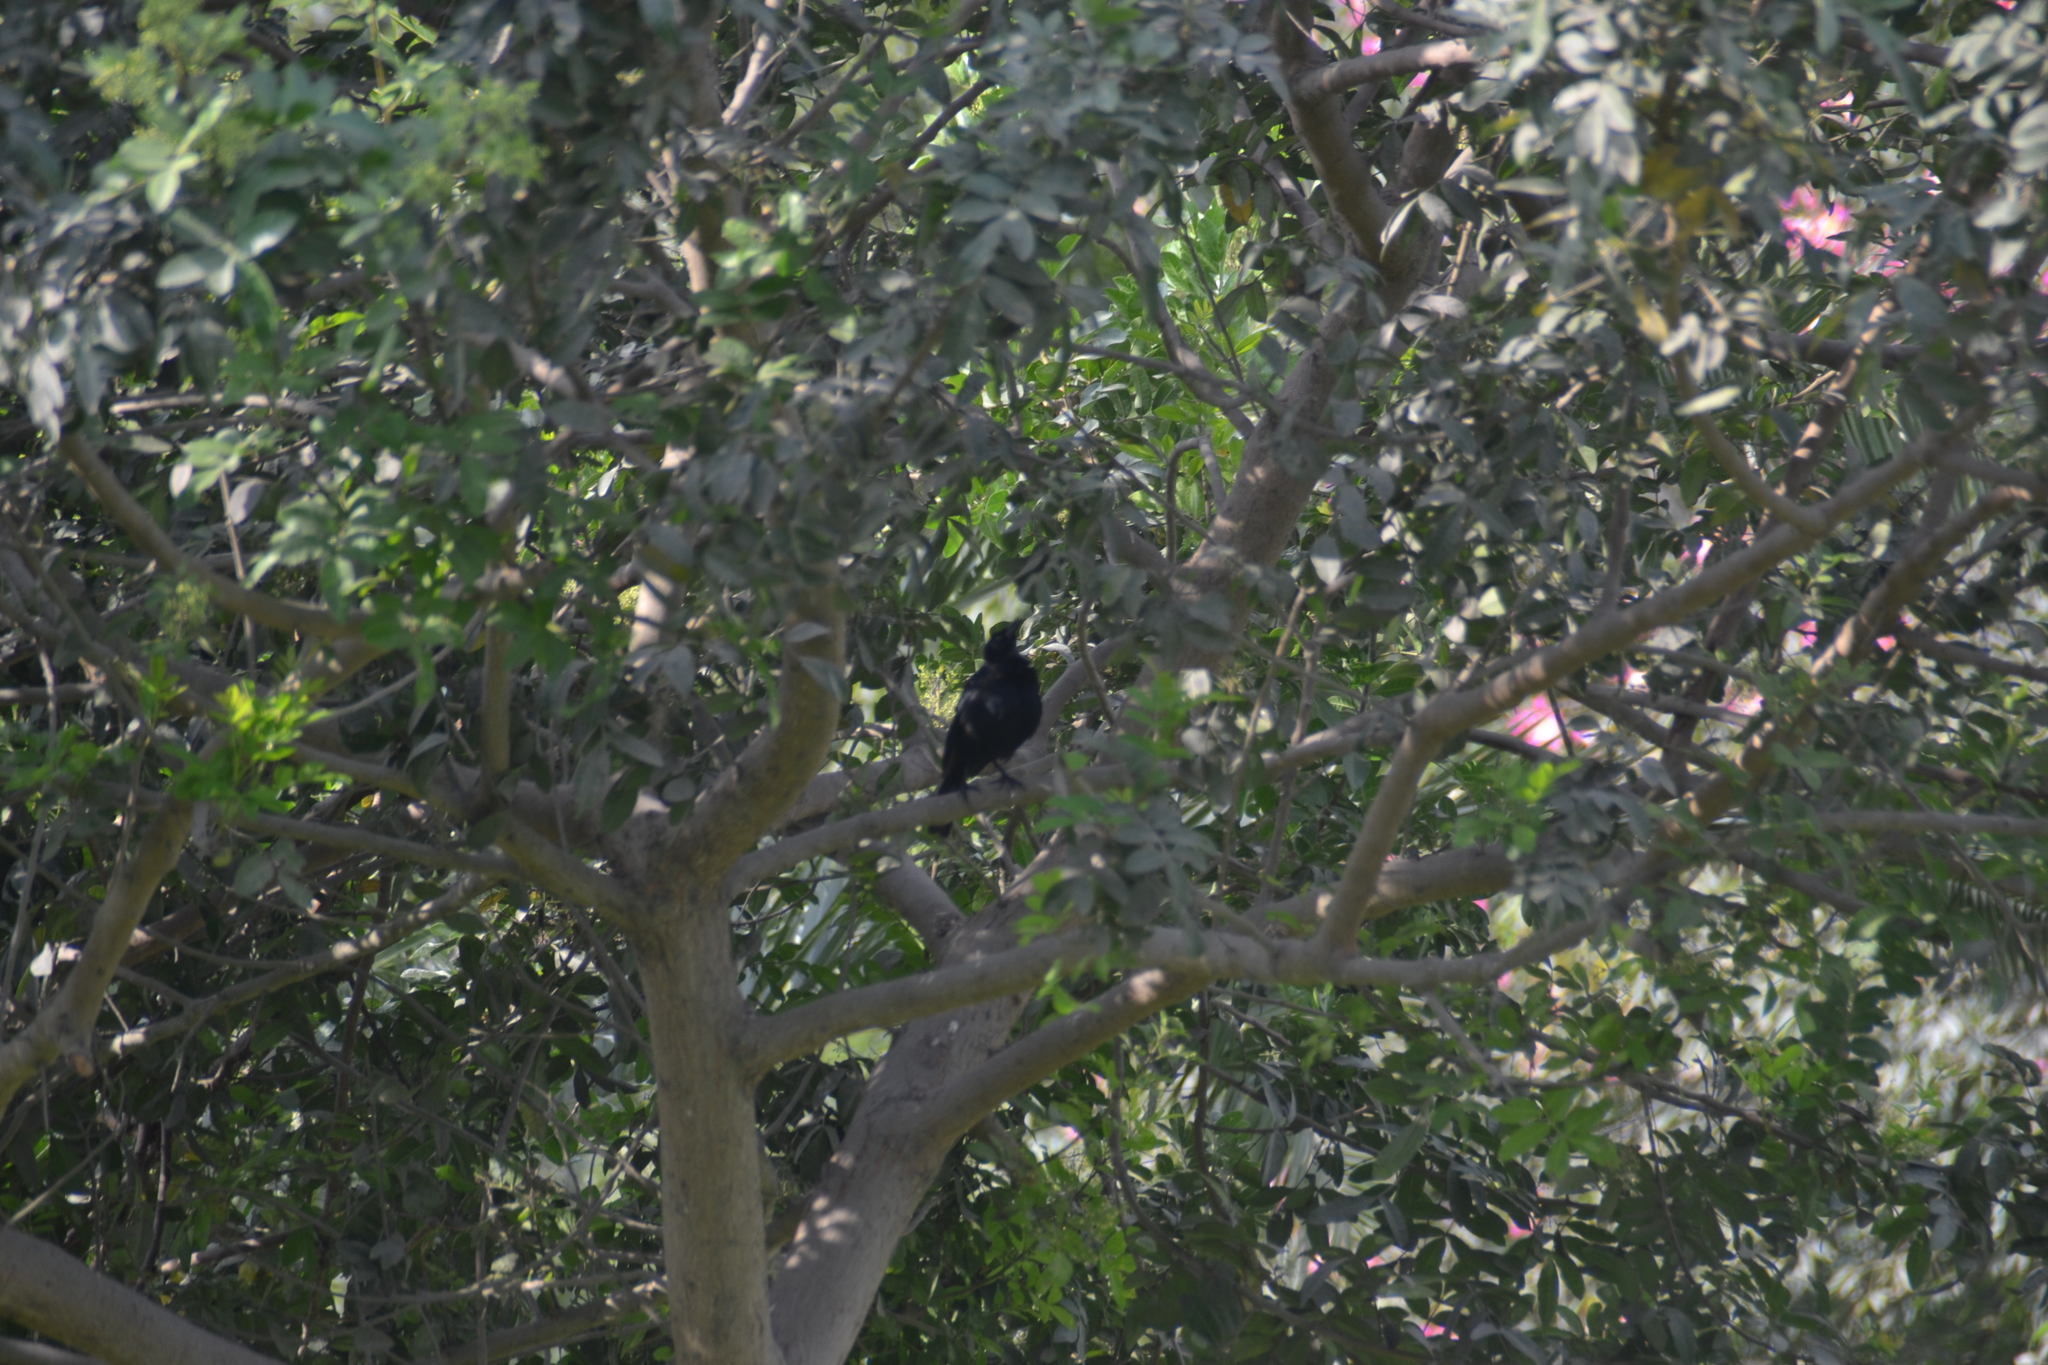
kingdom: Animalia
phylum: Chordata
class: Aves
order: Passeriformes
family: Icteridae
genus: Dives
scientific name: Dives warczewiczi
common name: Scrub blackbird
